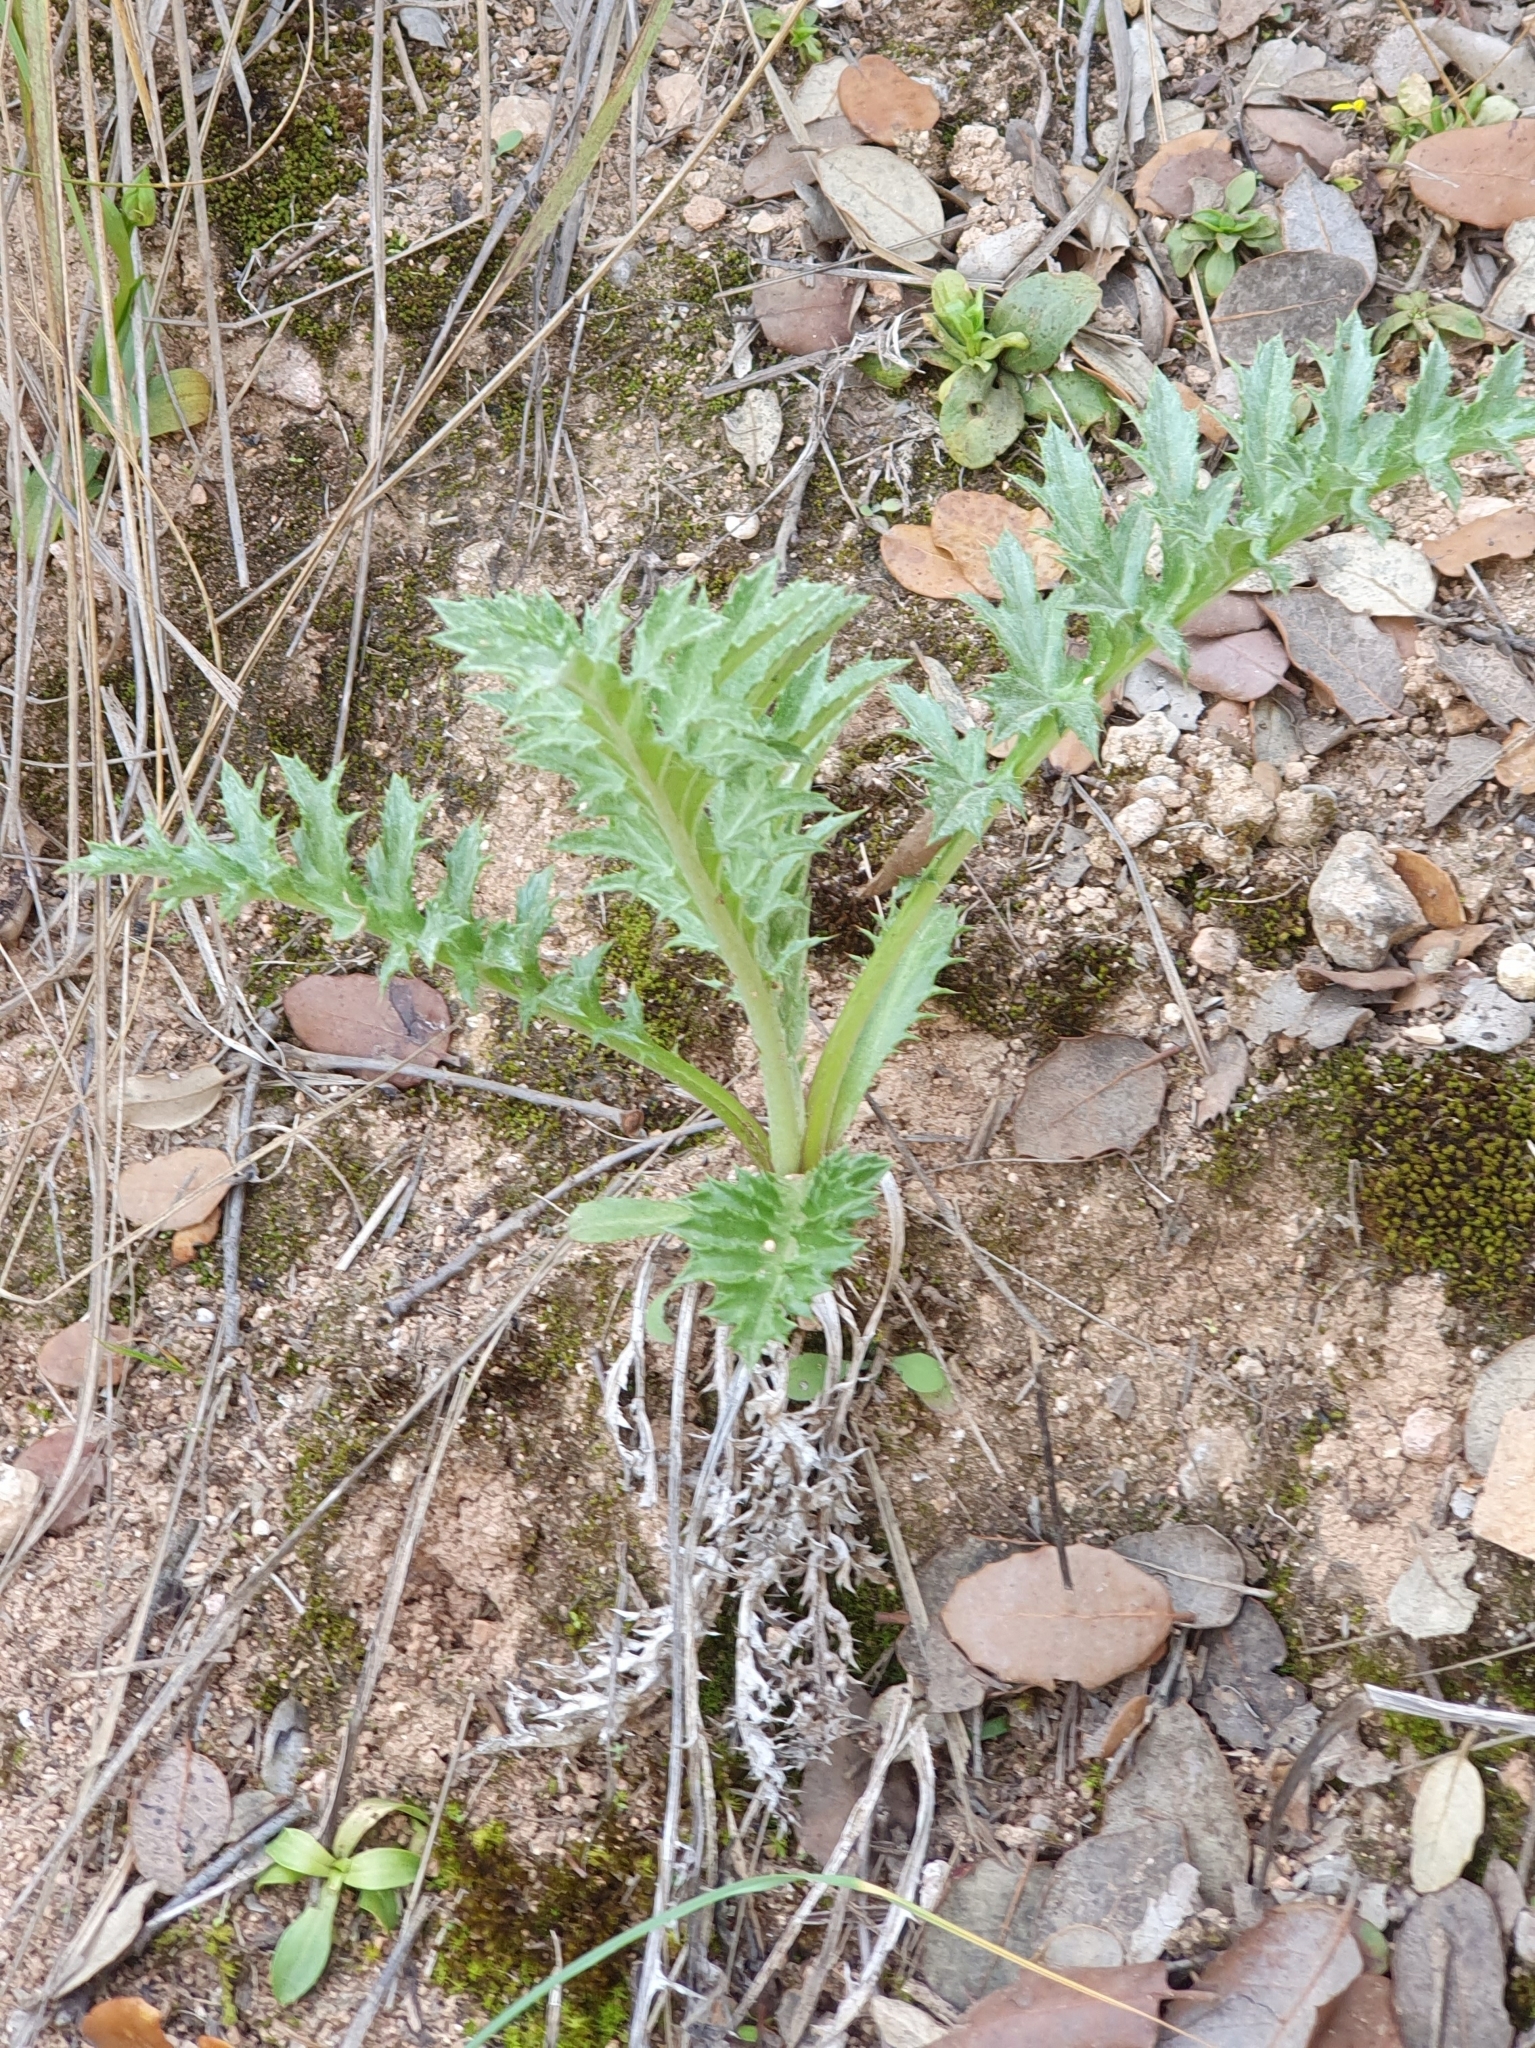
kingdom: Plantae
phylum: Tracheophyta
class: Magnoliopsida
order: Asterales
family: Asteraceae
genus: Chamaeleon
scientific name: Chamaeleon gummifer
